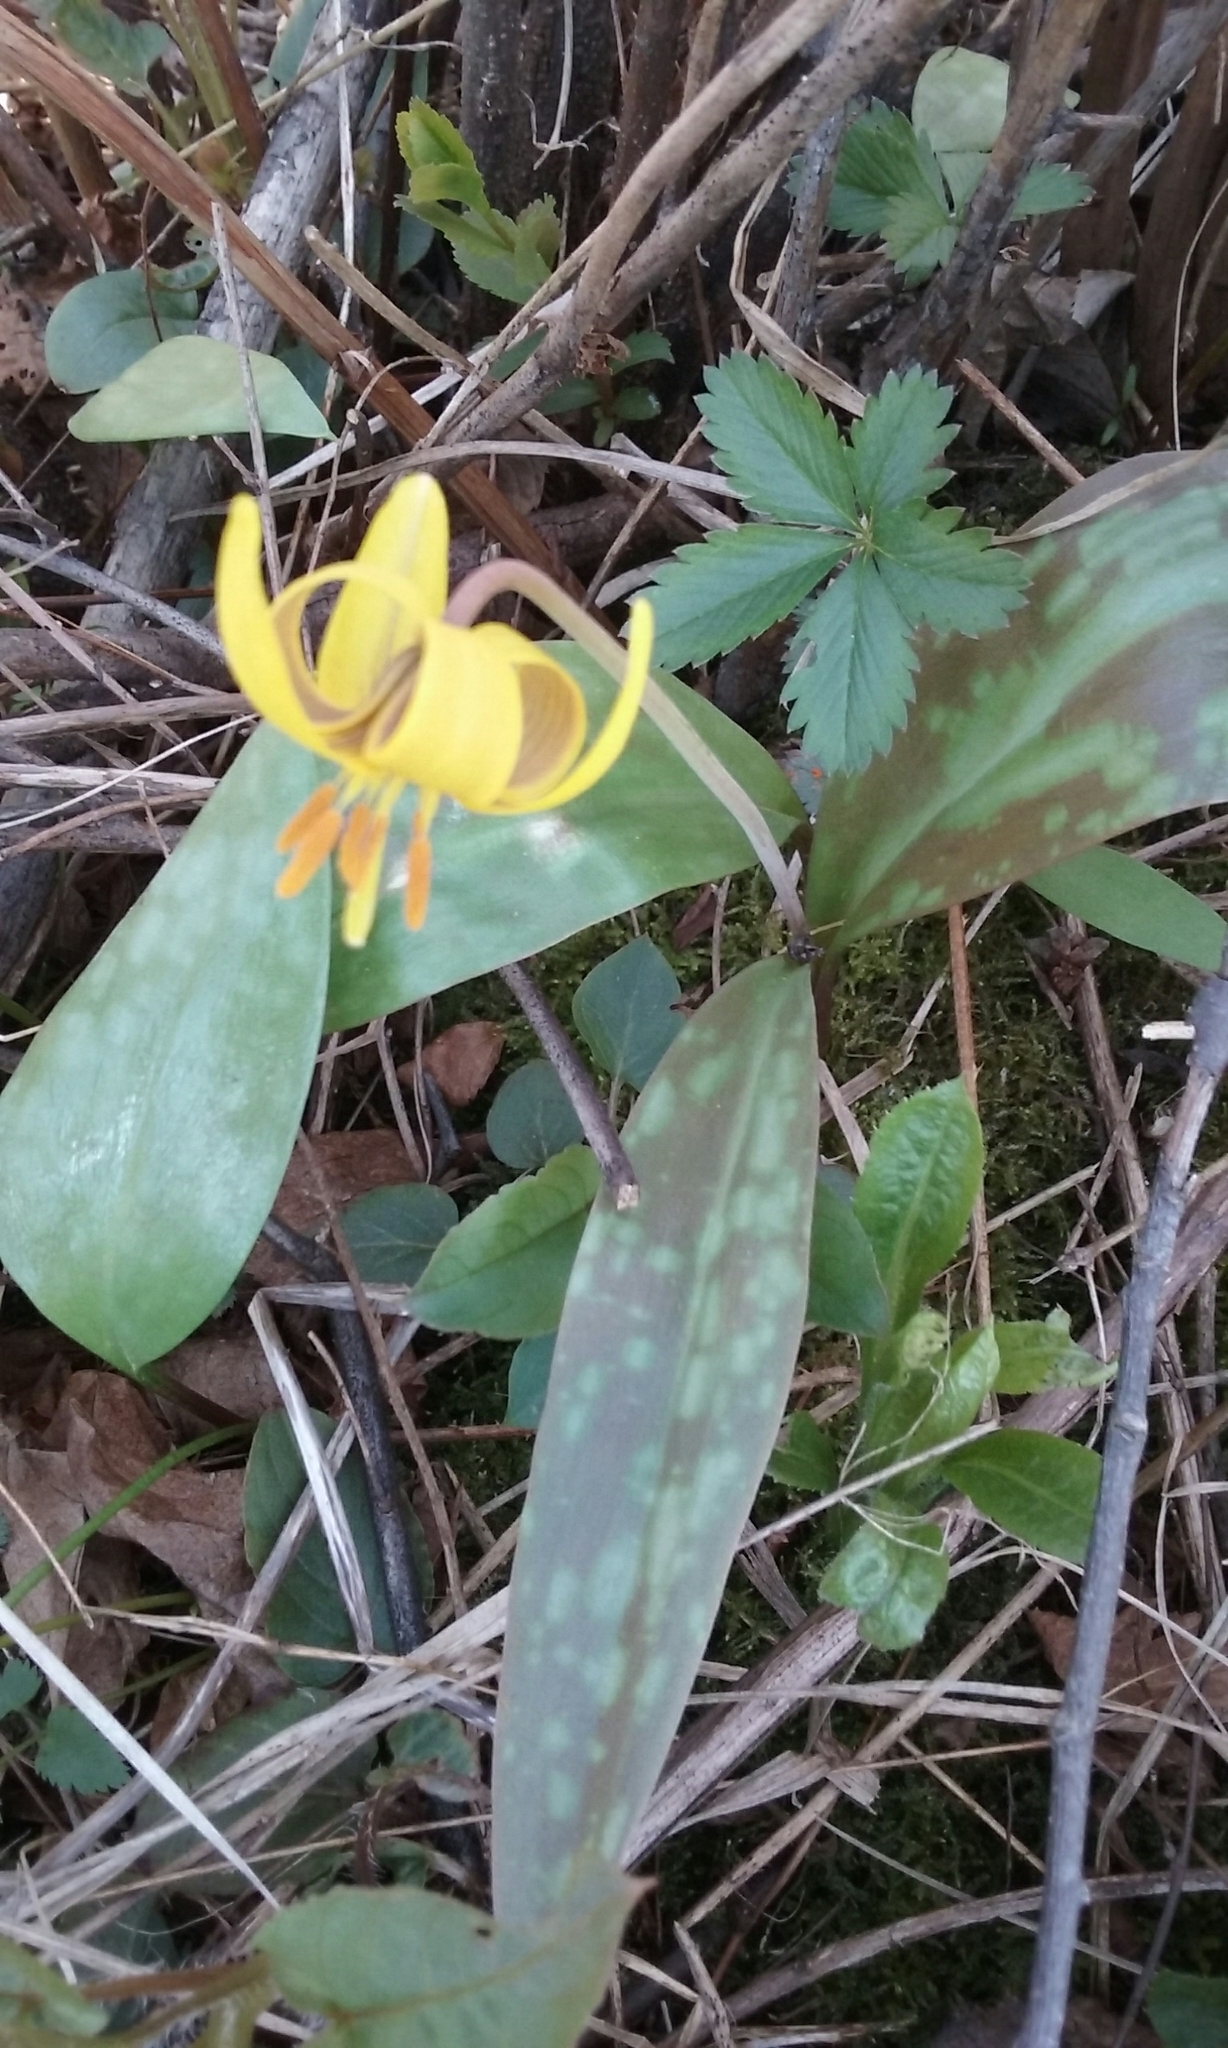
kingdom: Plantae
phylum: Tracheophyta
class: Liliopsida
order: Liliales
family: Liliaceae
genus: Erythronium
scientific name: Erythronium americanum
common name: Yellow adder's-tongue
